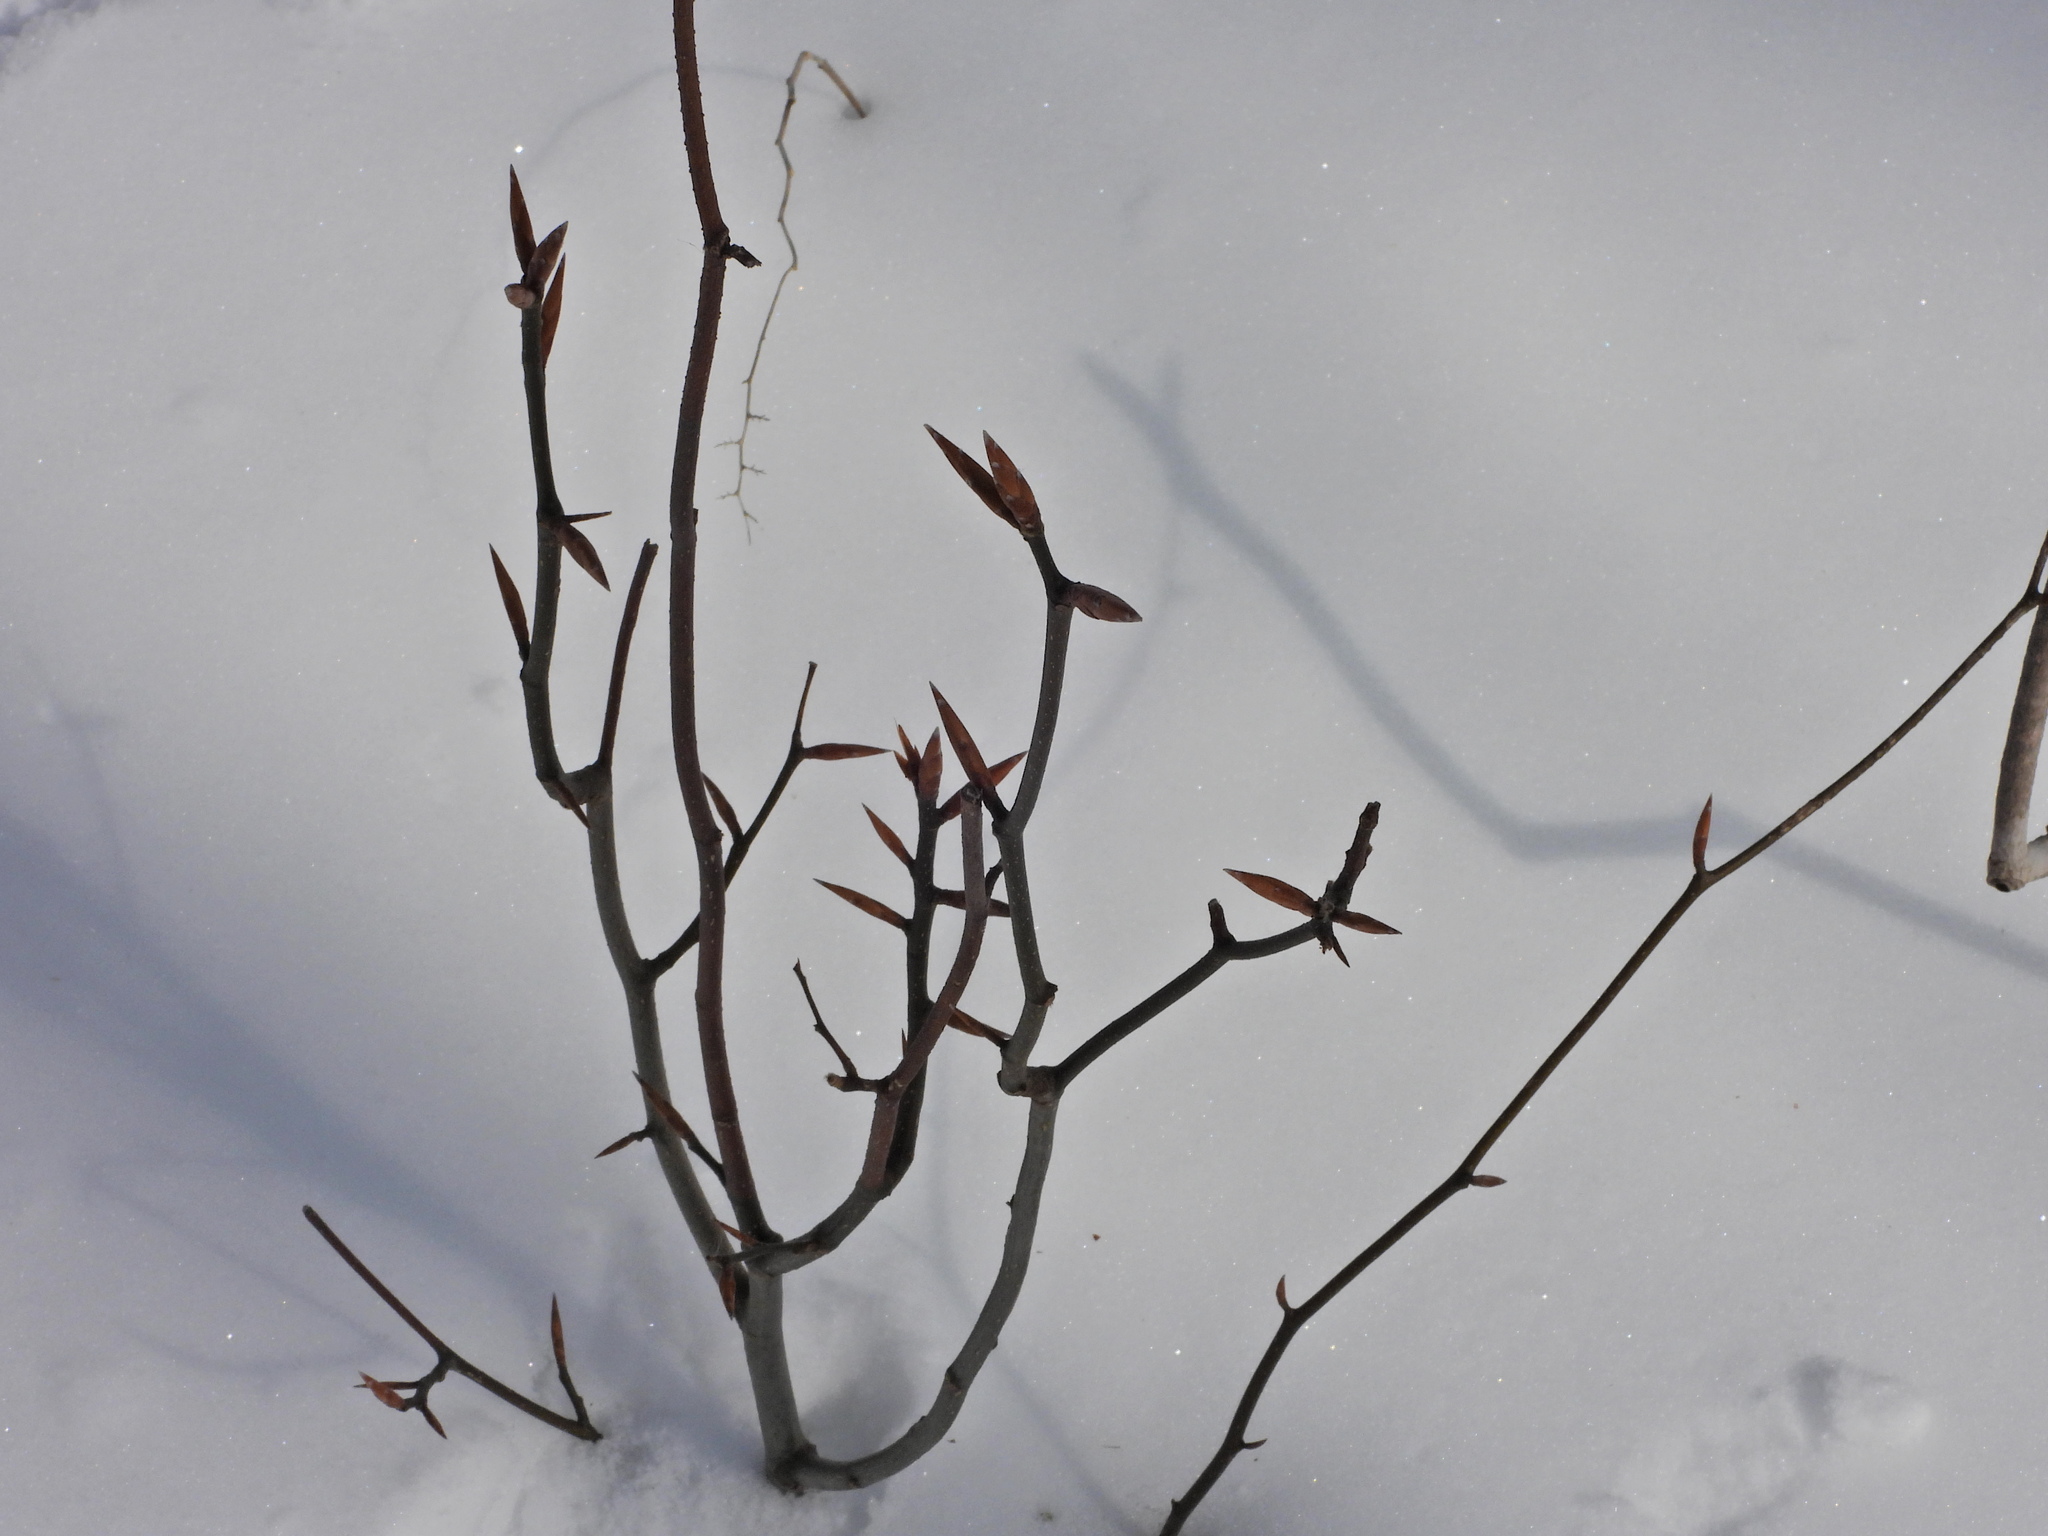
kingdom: Plantae
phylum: Tracheophyta
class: Magnoliopsida
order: Fagales
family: Fagaceae
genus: Fagus
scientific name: Fagus grandifolia
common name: American beech
